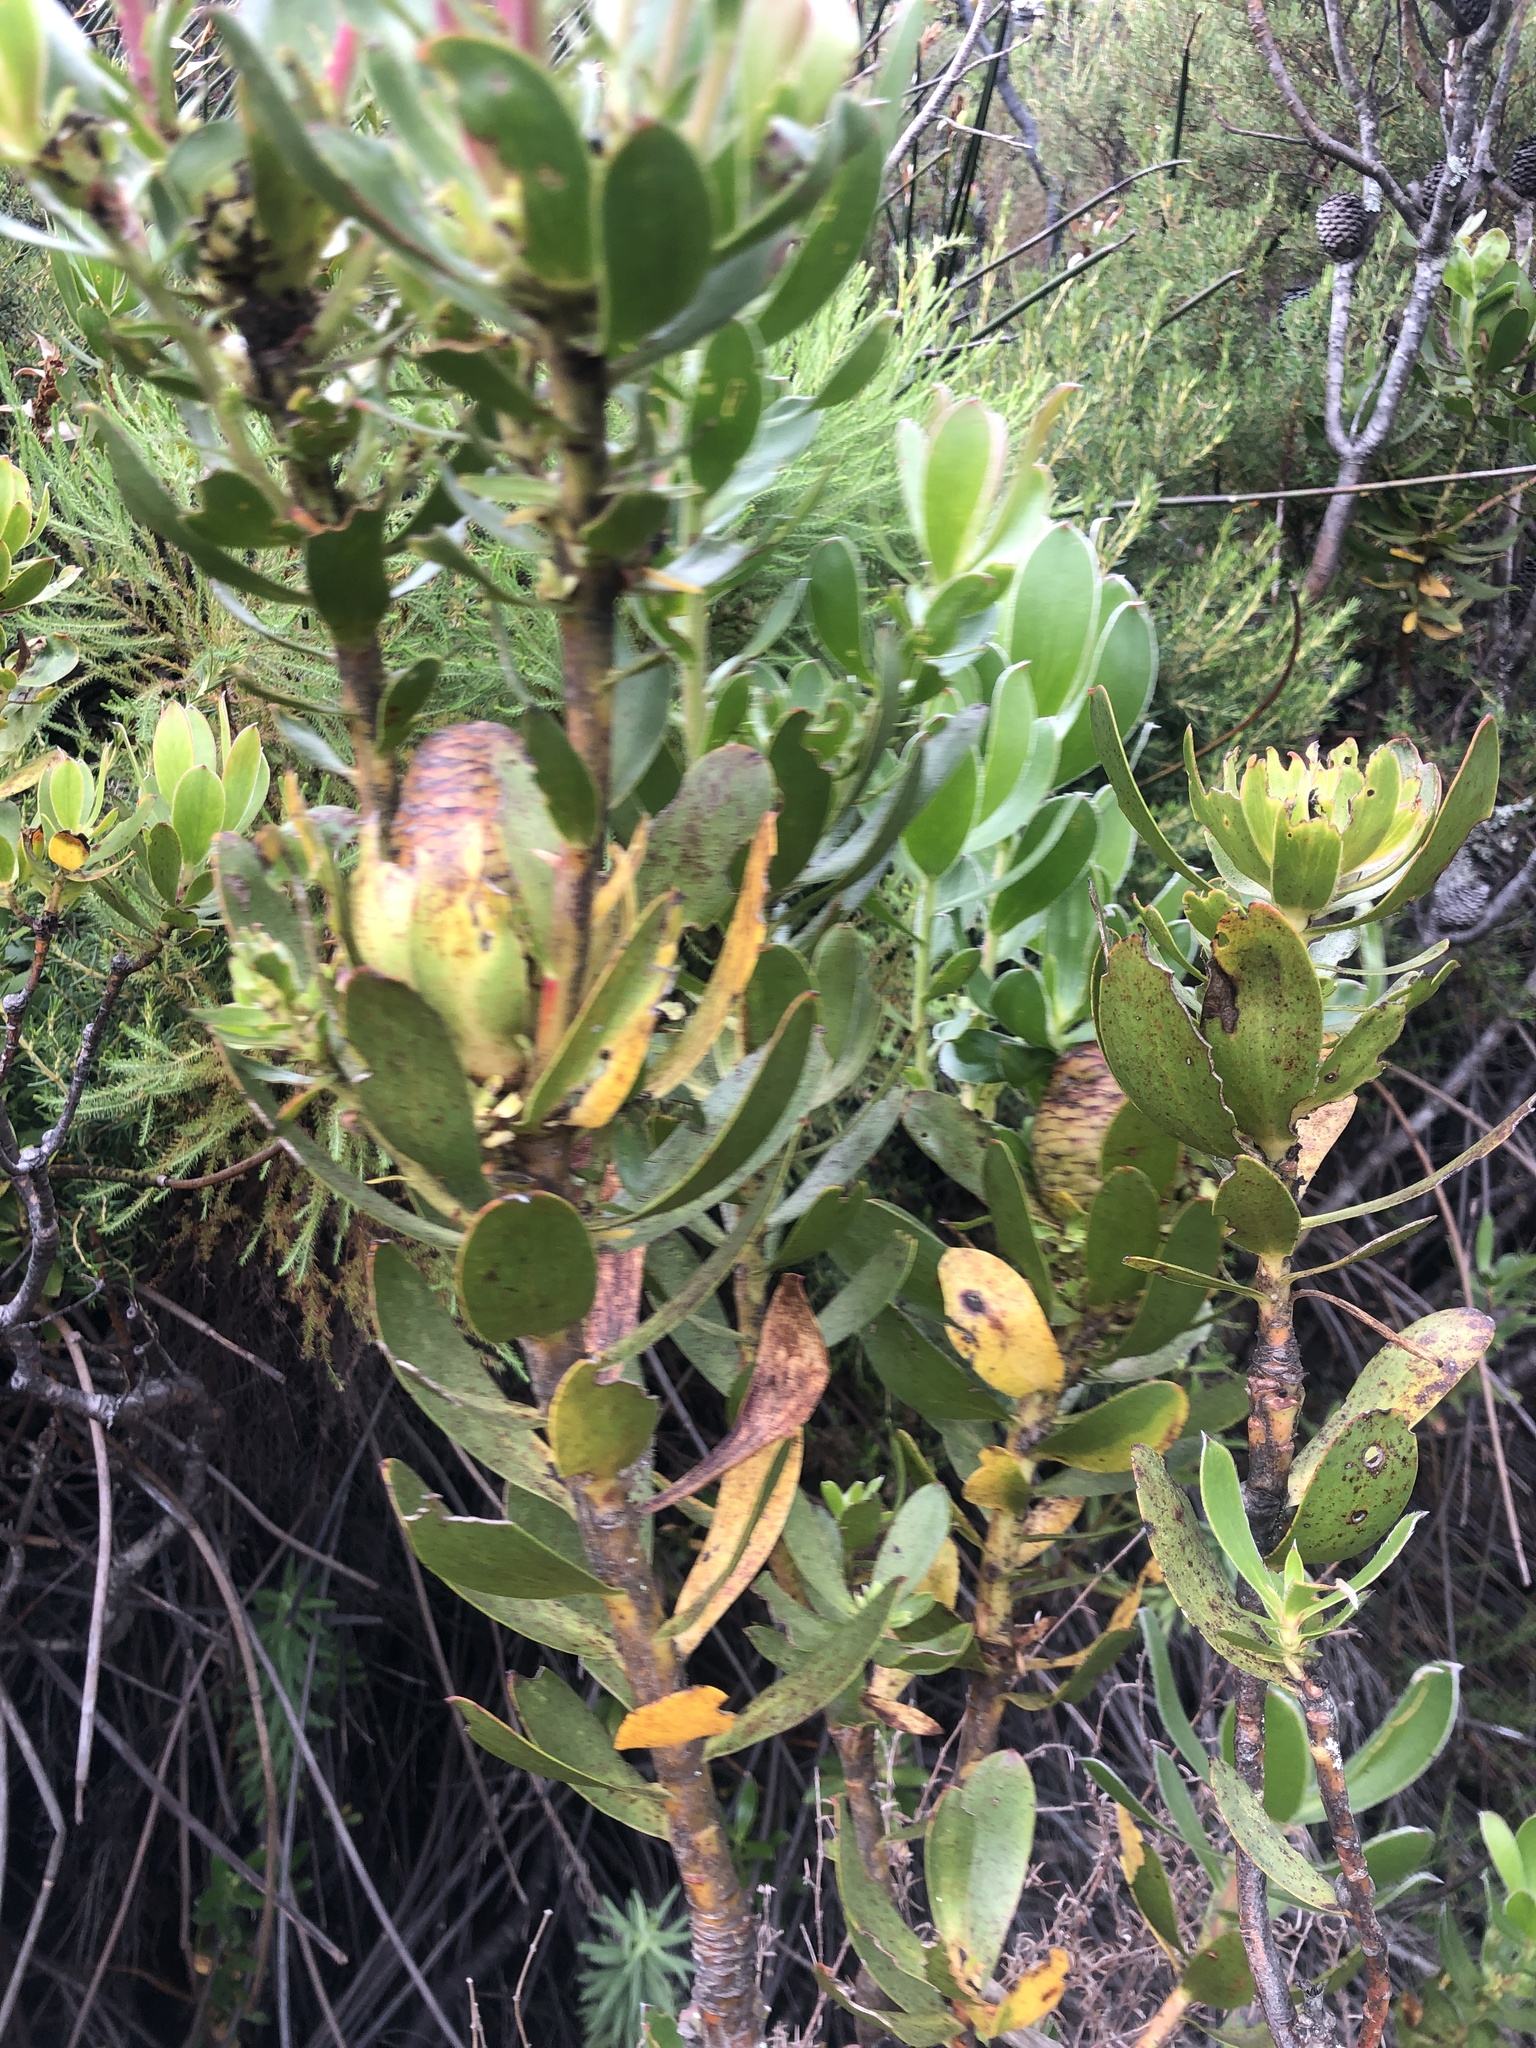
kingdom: Plantae
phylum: Tracheophyta
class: Magnoliopsida
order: Proteales
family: Proteaceae
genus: Leucadendron
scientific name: Leucadendron strobilinum
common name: Mountain rose
